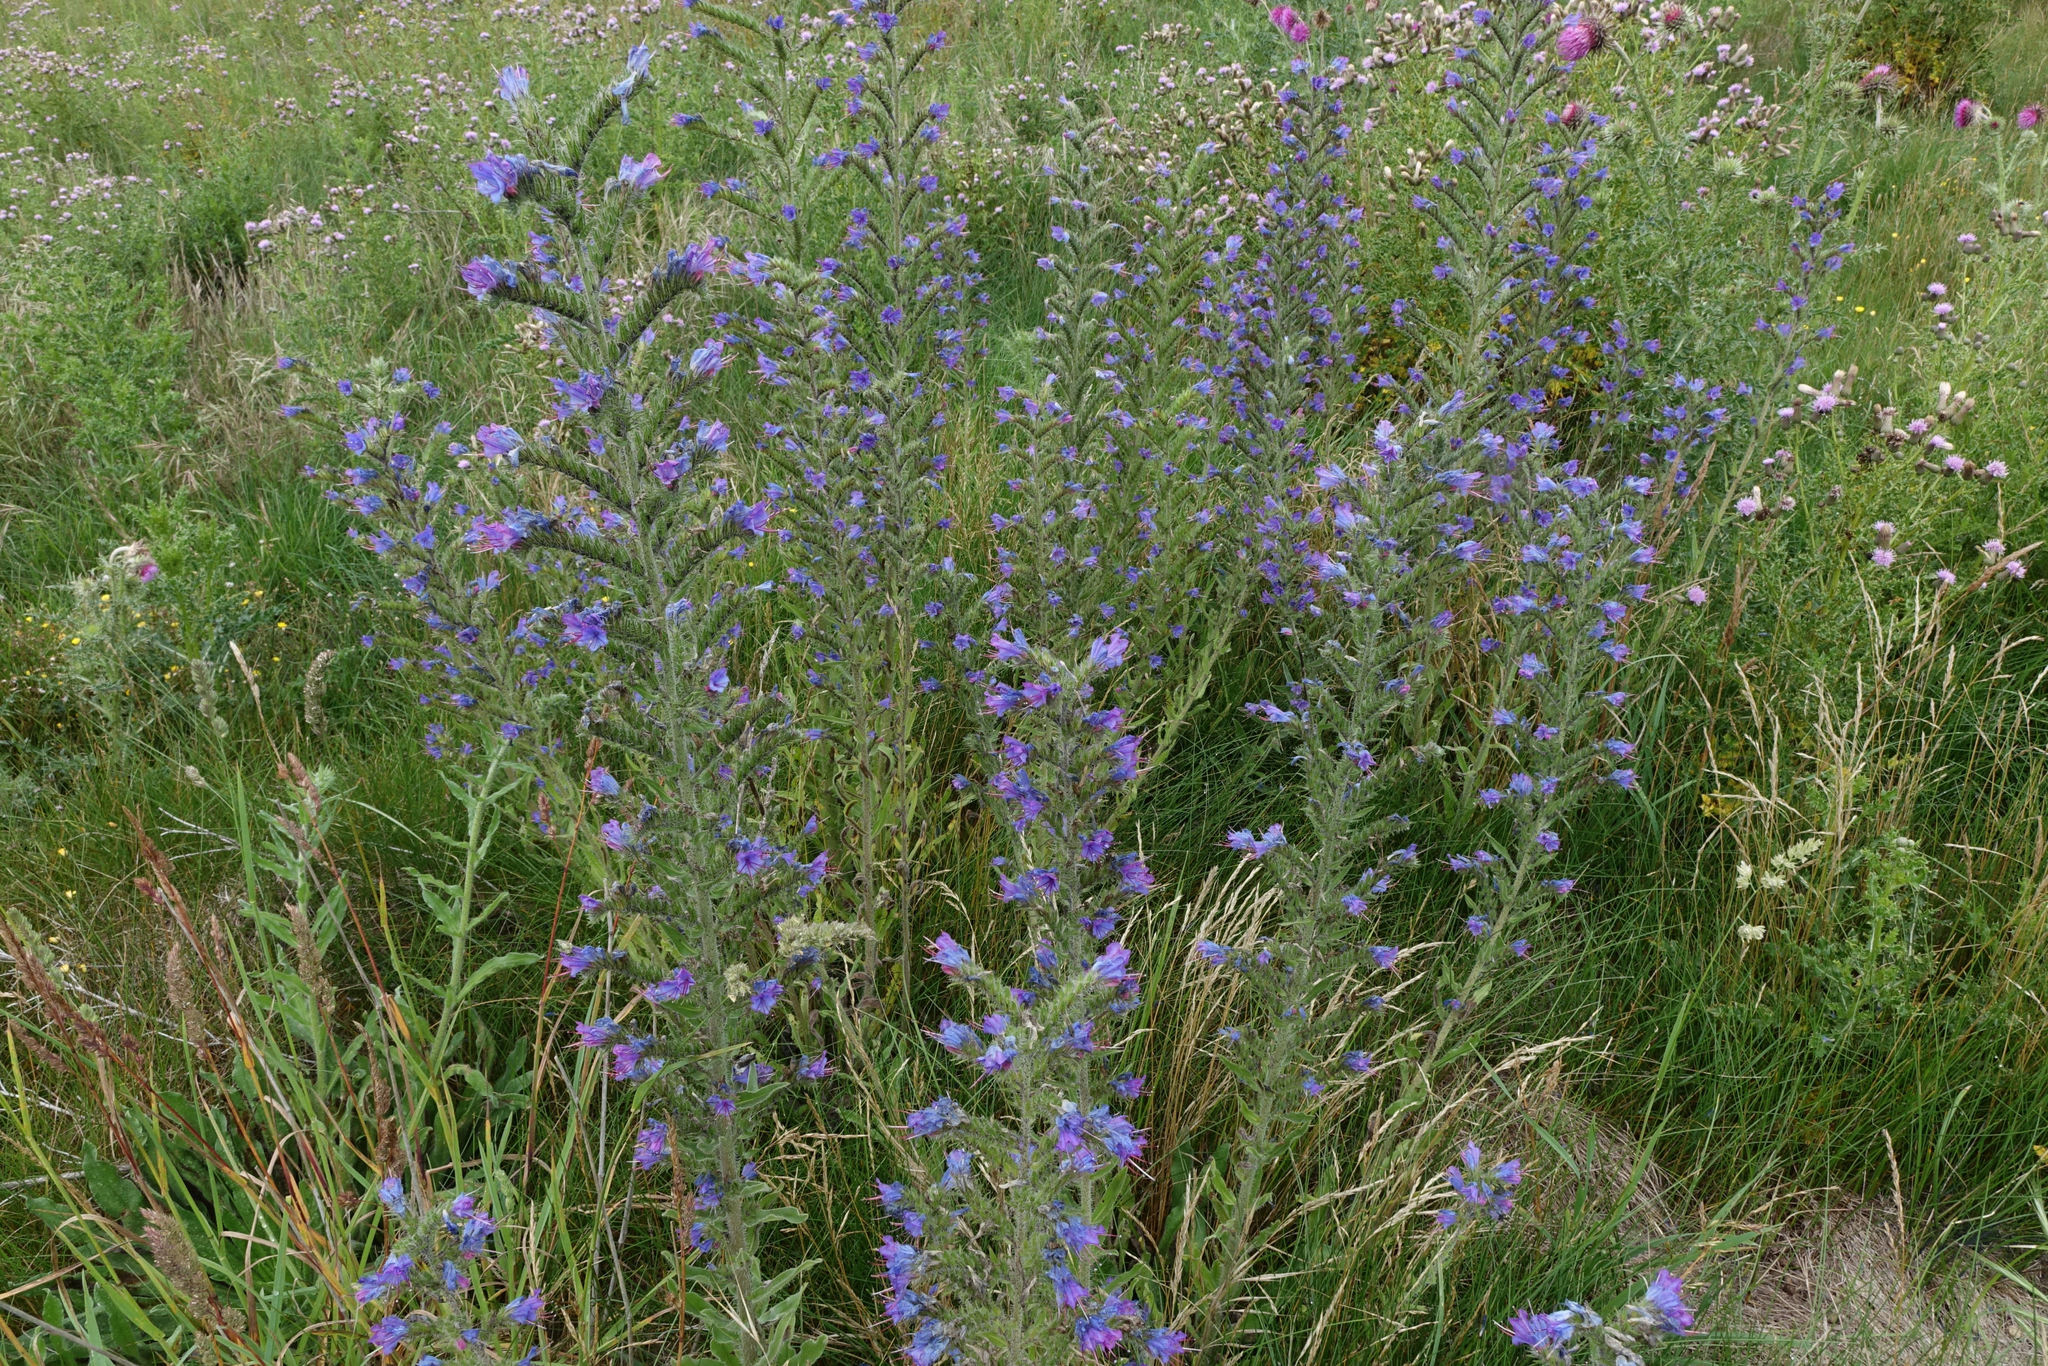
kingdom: Plantae
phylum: Tracheophyta
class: Magnoliopsida
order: Boraginales
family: Boraginaceae
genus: Echium
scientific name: Echium vulgare
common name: Common viper's bugloss
